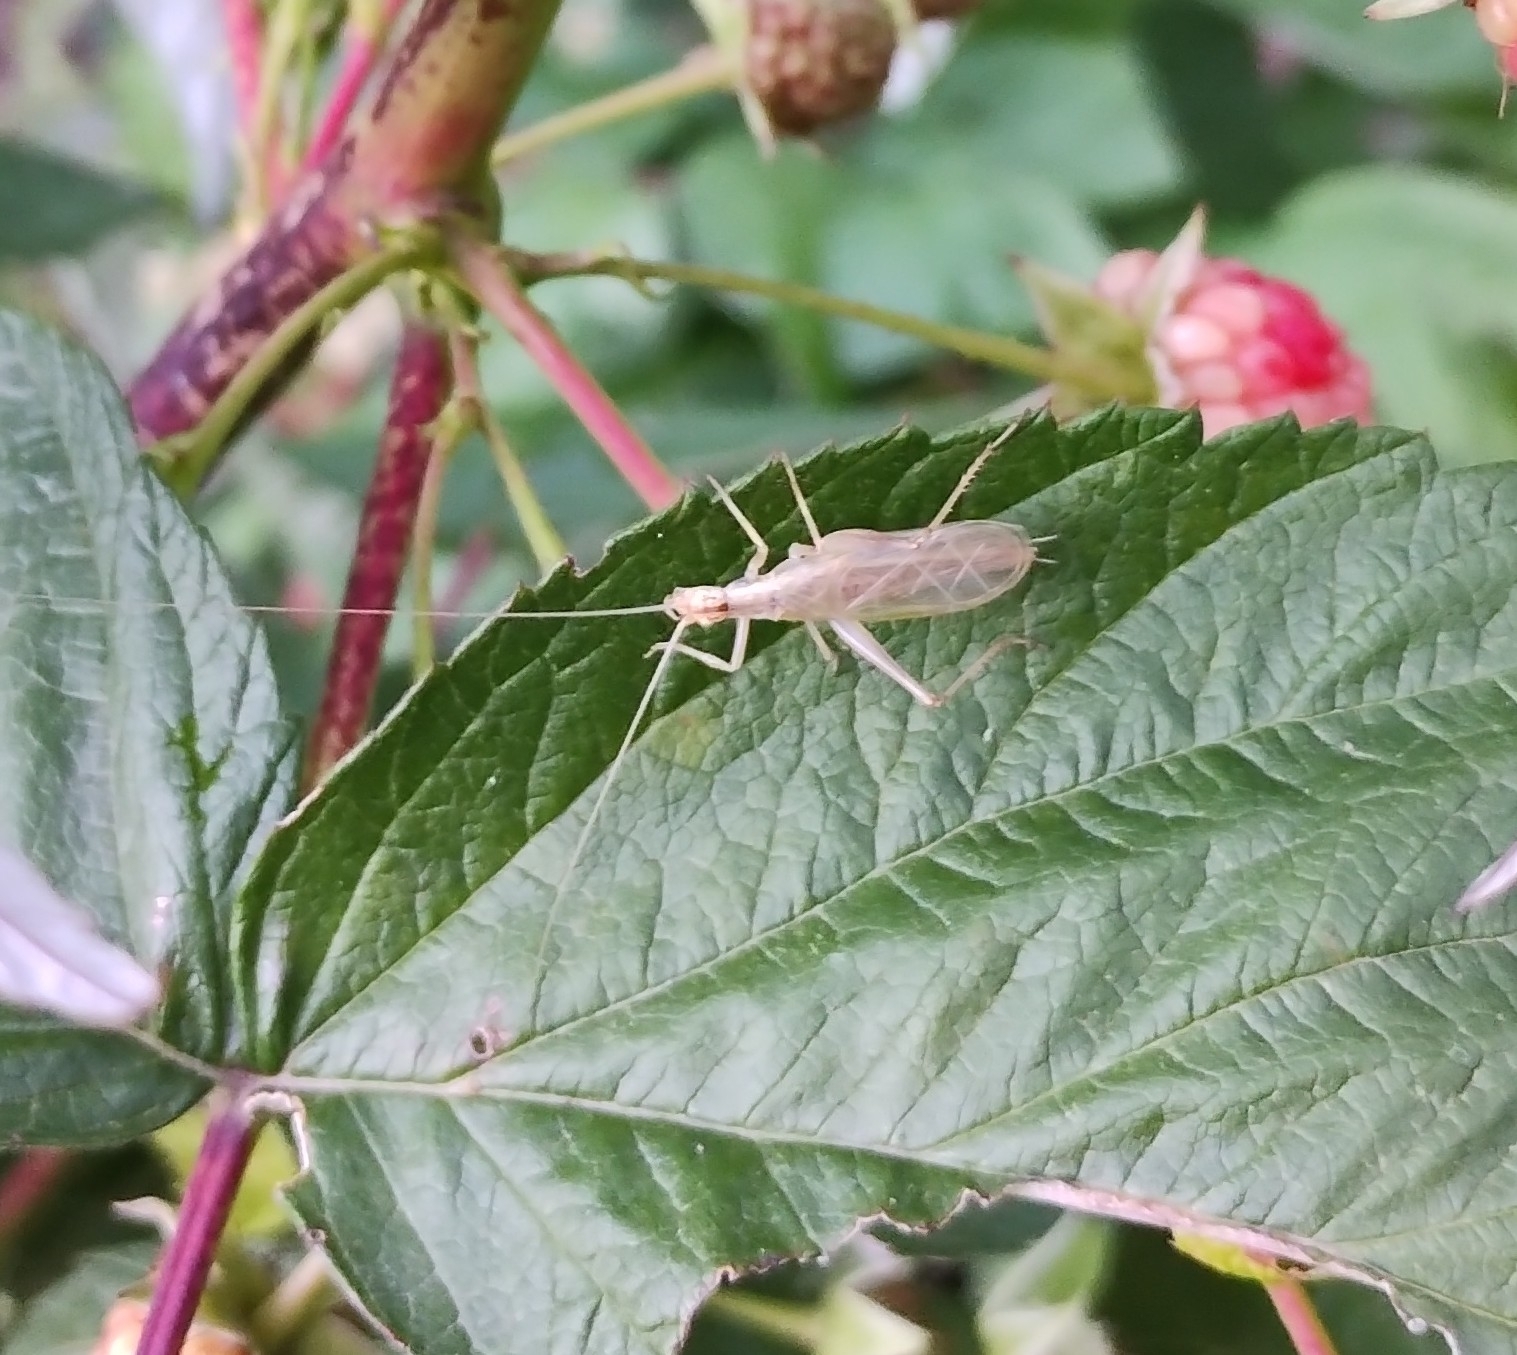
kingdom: Animalia
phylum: Arthropoda
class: Insecta
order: Orthoptera
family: Gryllidae
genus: Oecanthus
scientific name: Oecanthus pellucens
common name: Tree-cricket
